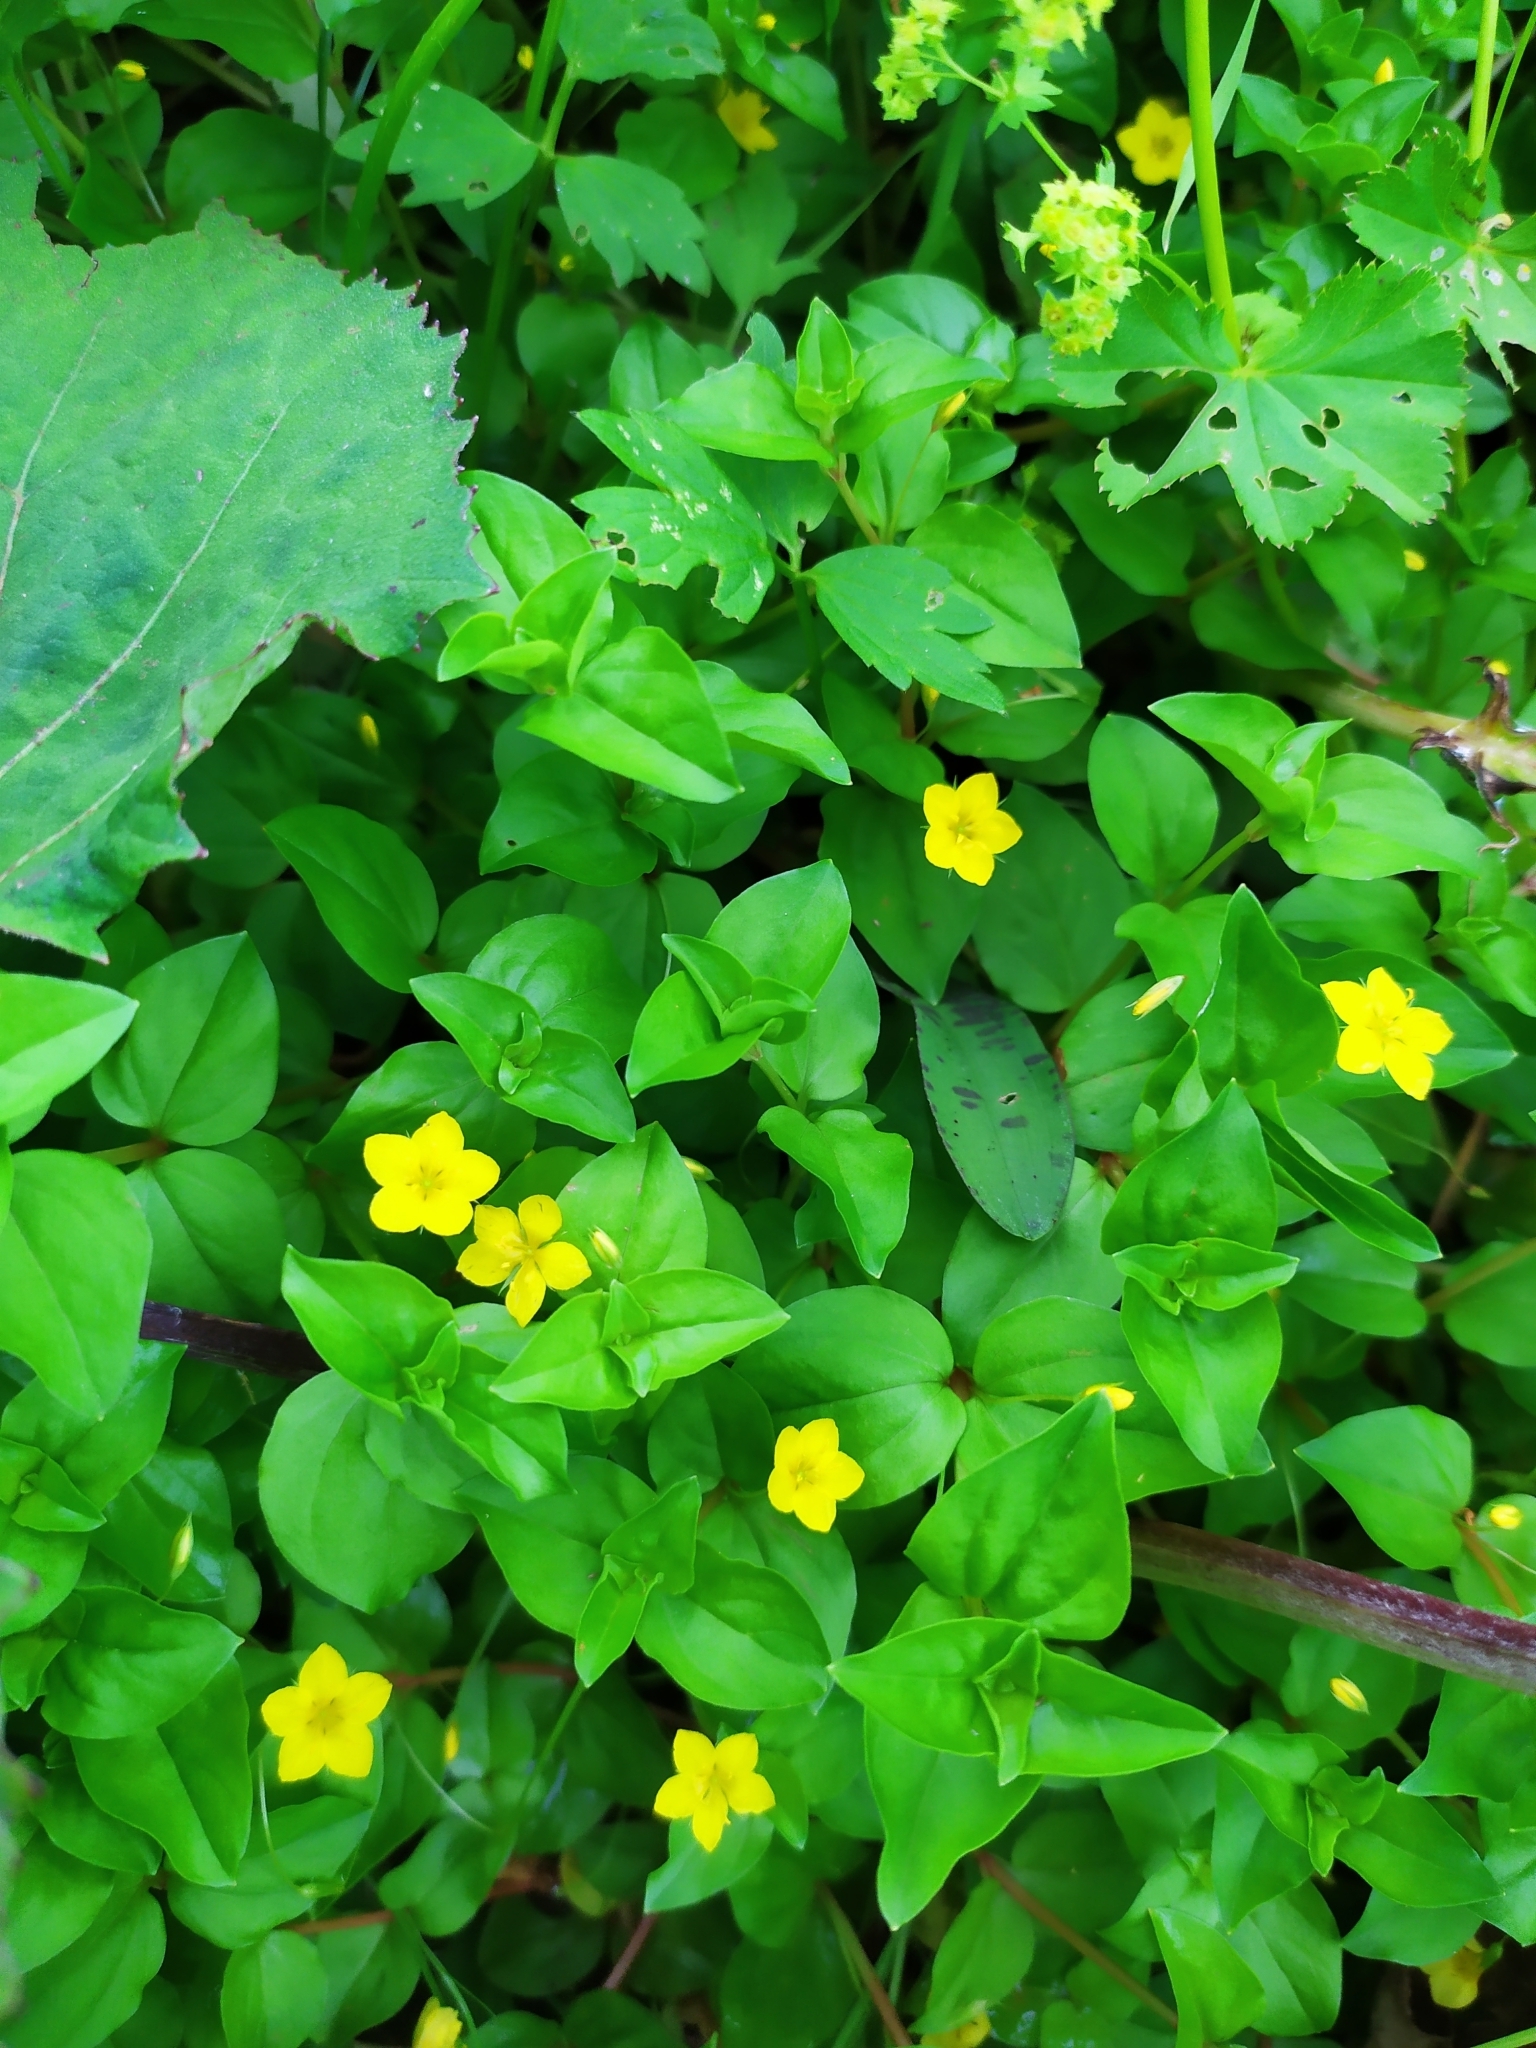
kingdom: Plantae
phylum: Tracheophyta
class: Magnoliopsida
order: Ericales
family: Primulaceae
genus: Lysimachia
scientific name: Lysimachia nemorum
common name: Yellow pimpernel
